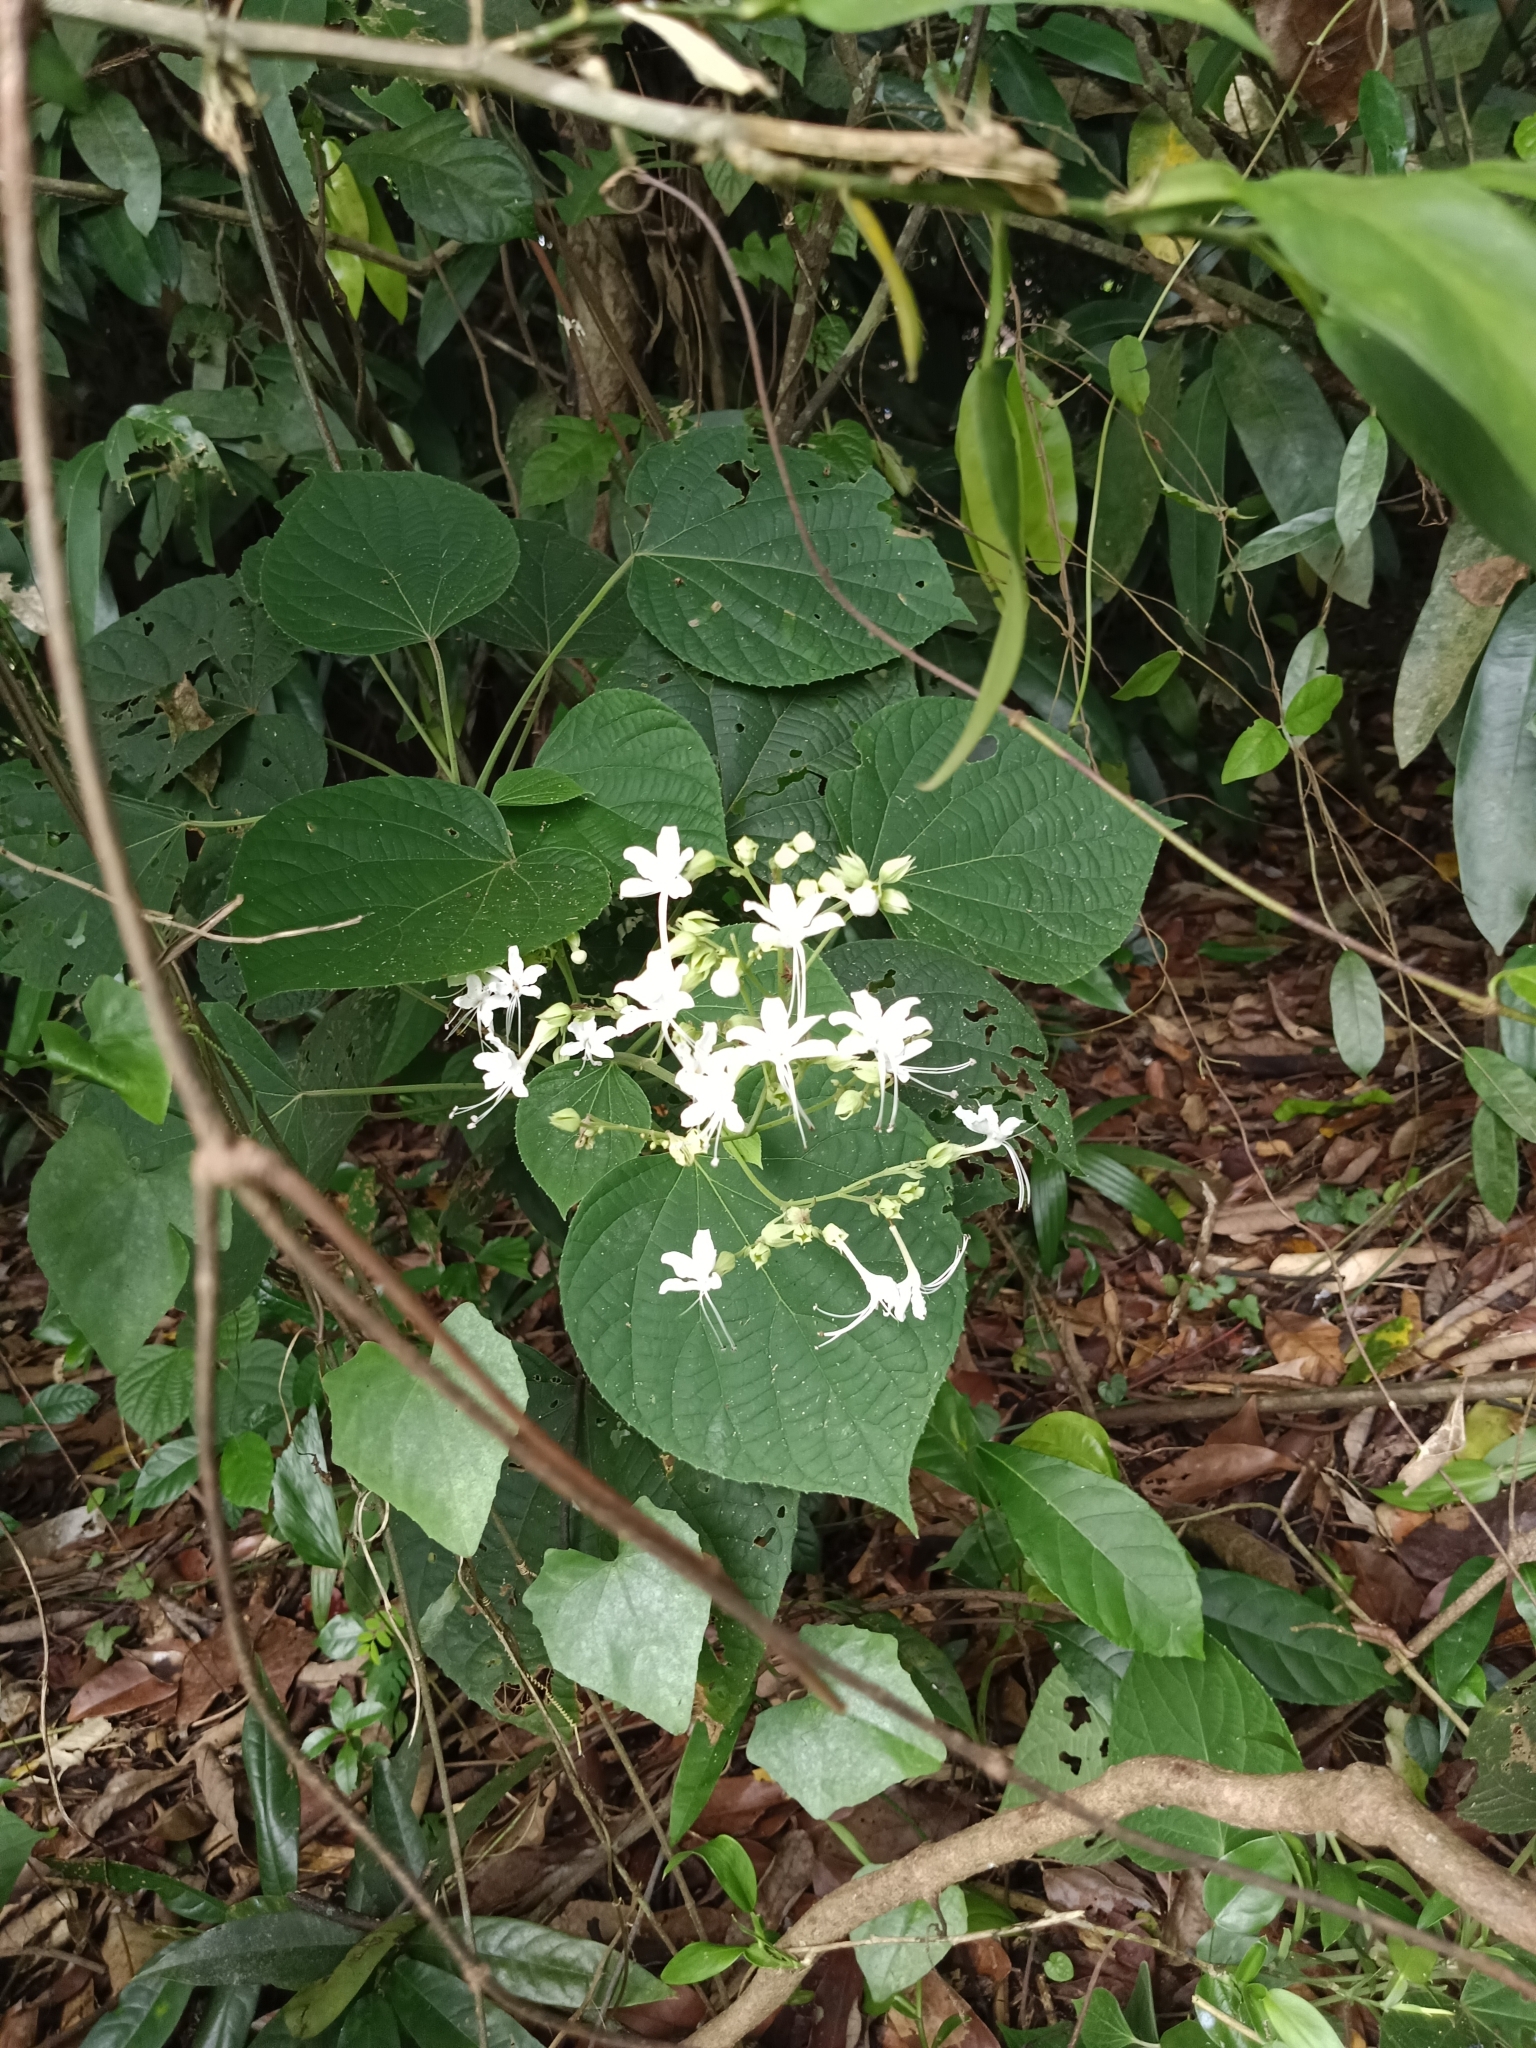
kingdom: Plantae
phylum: Tracheophyta
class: Magnoliopsida
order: Lamiales
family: Lamiaceae
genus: Clerodendrum
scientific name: Clerodendrum infortunatum
